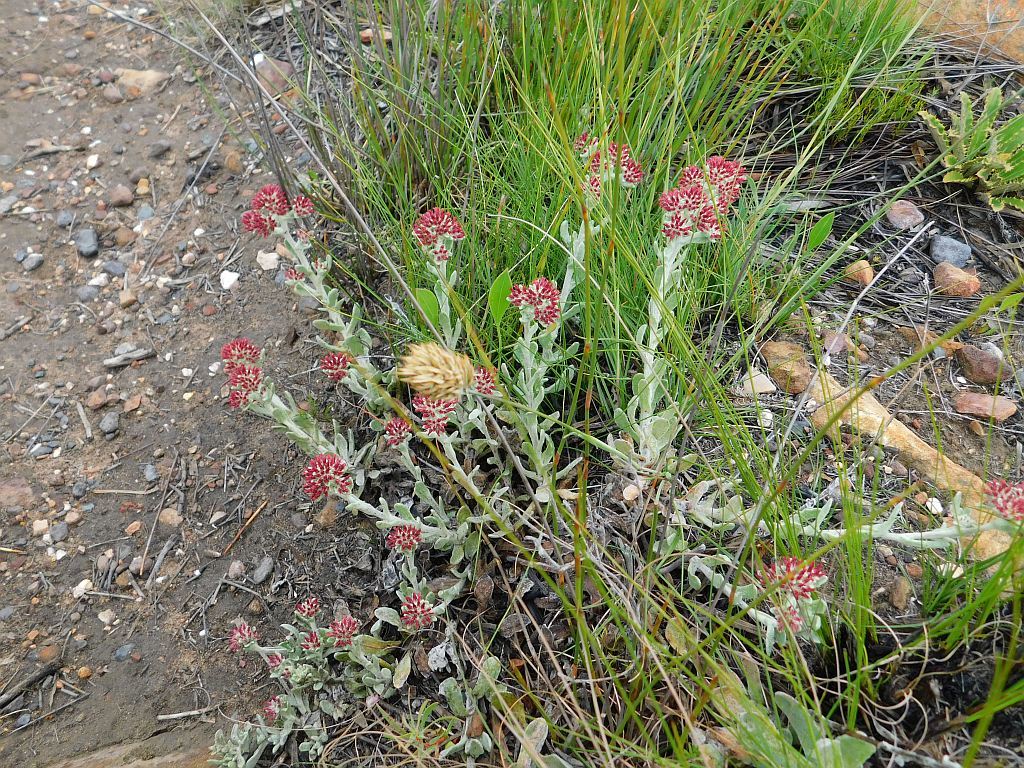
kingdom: Plantae
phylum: Tracheophyta
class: Magnoliopsida
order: Asterales
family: Asteraceae
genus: Helichrysum
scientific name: Helichrysum spiralepis
